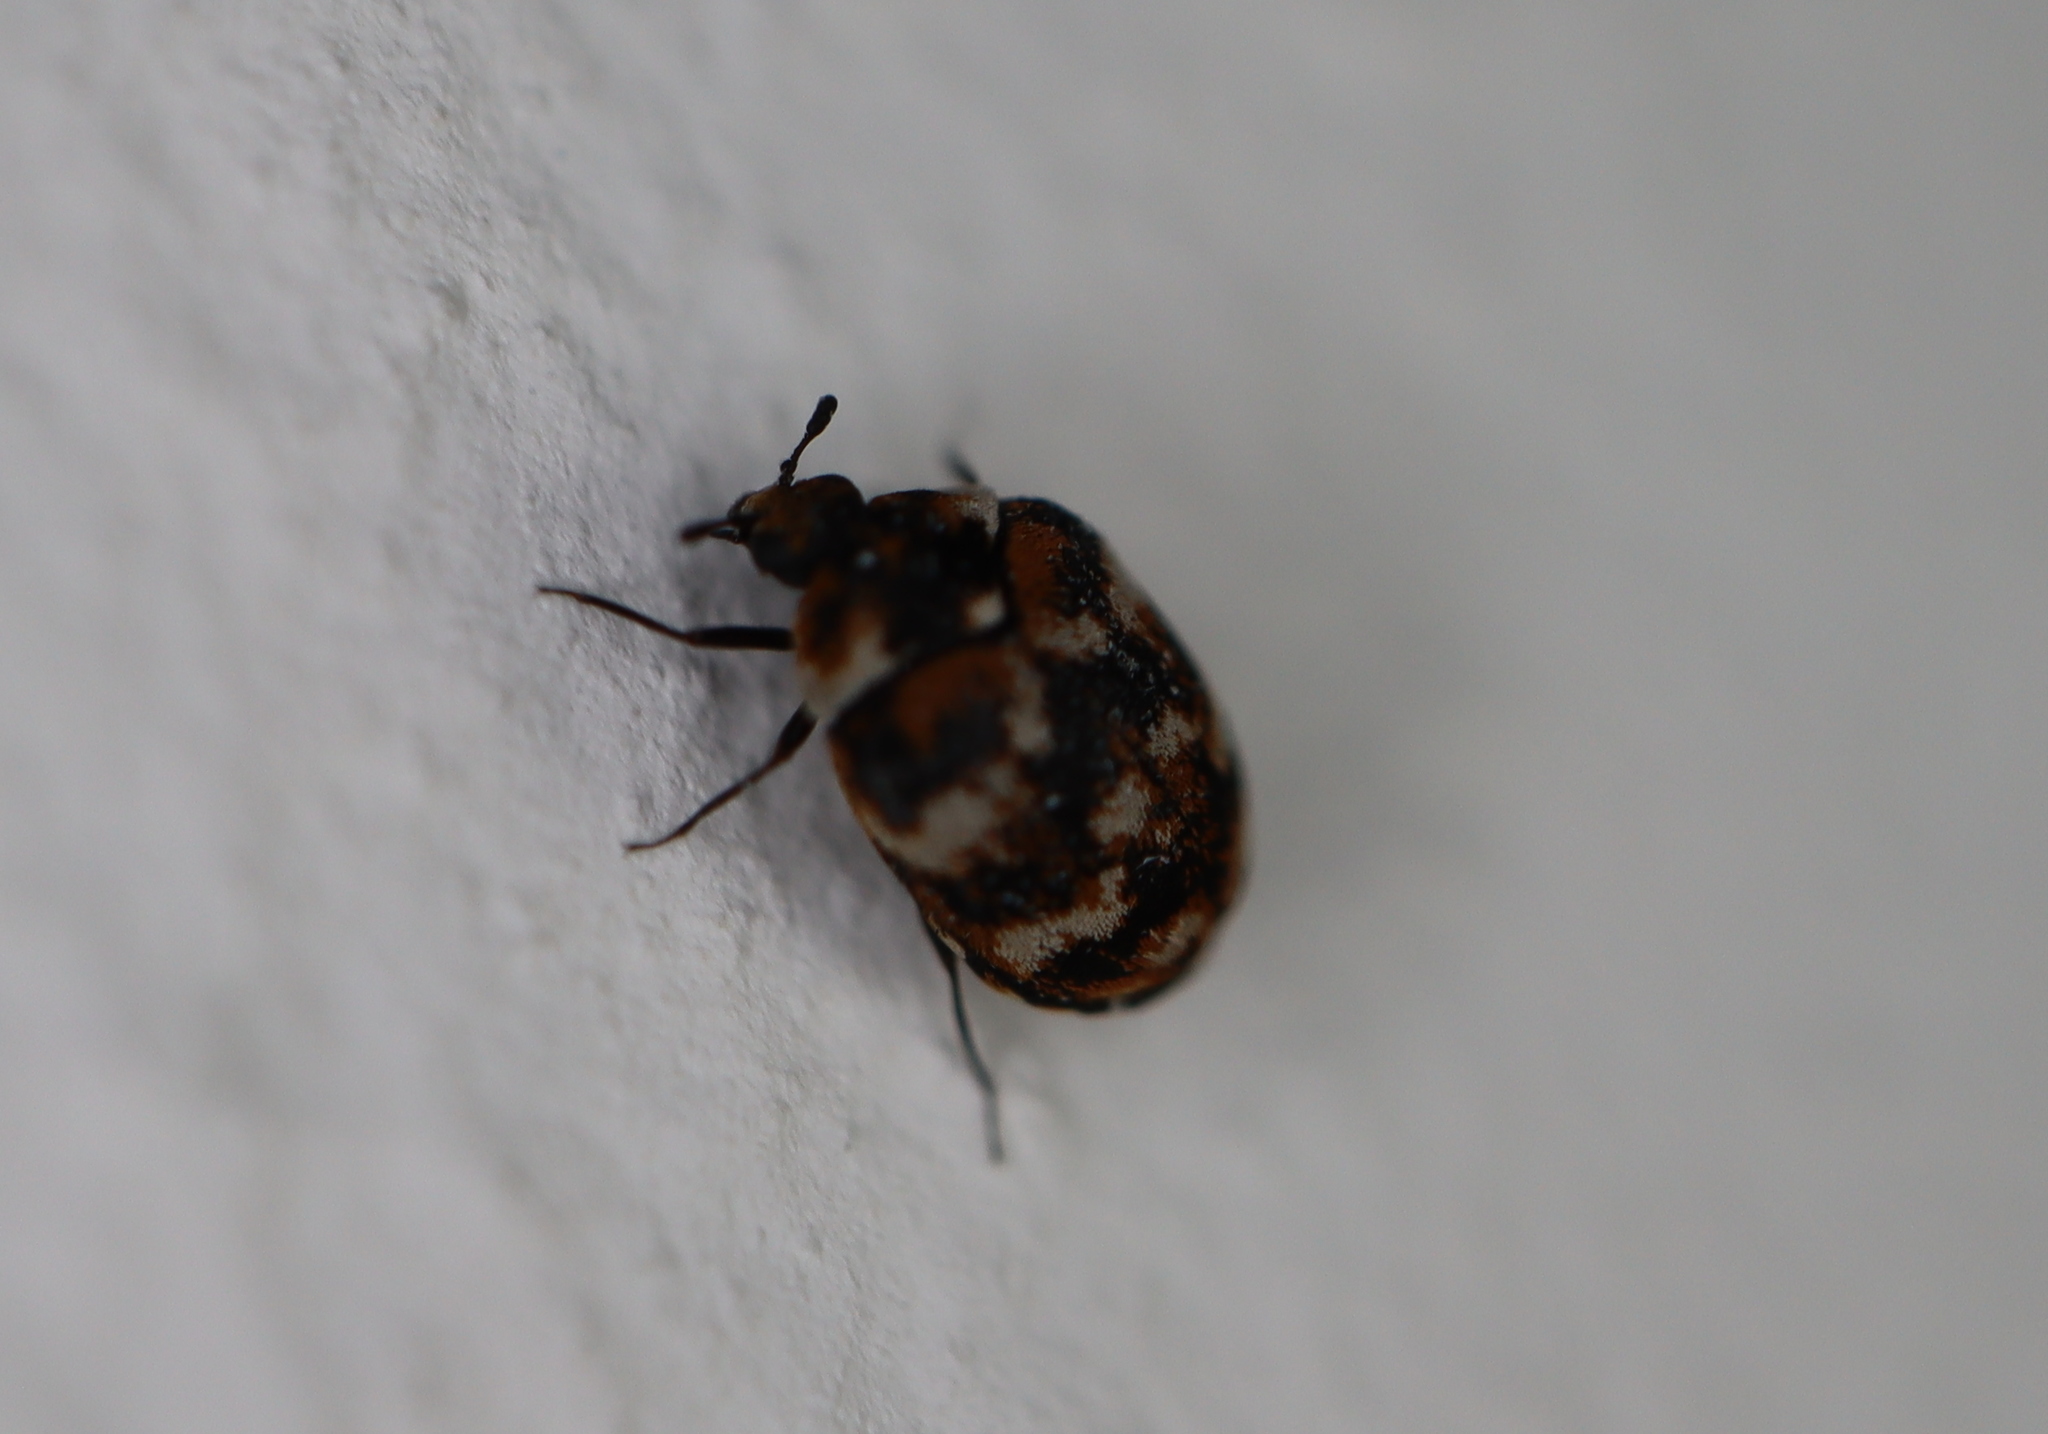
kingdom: Animalia
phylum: Arthropoda
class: Insecta
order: Coleoptera
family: Dermestidae
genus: Anthrenus
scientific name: Anthrenus verbasci
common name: Varied carpet beetle
